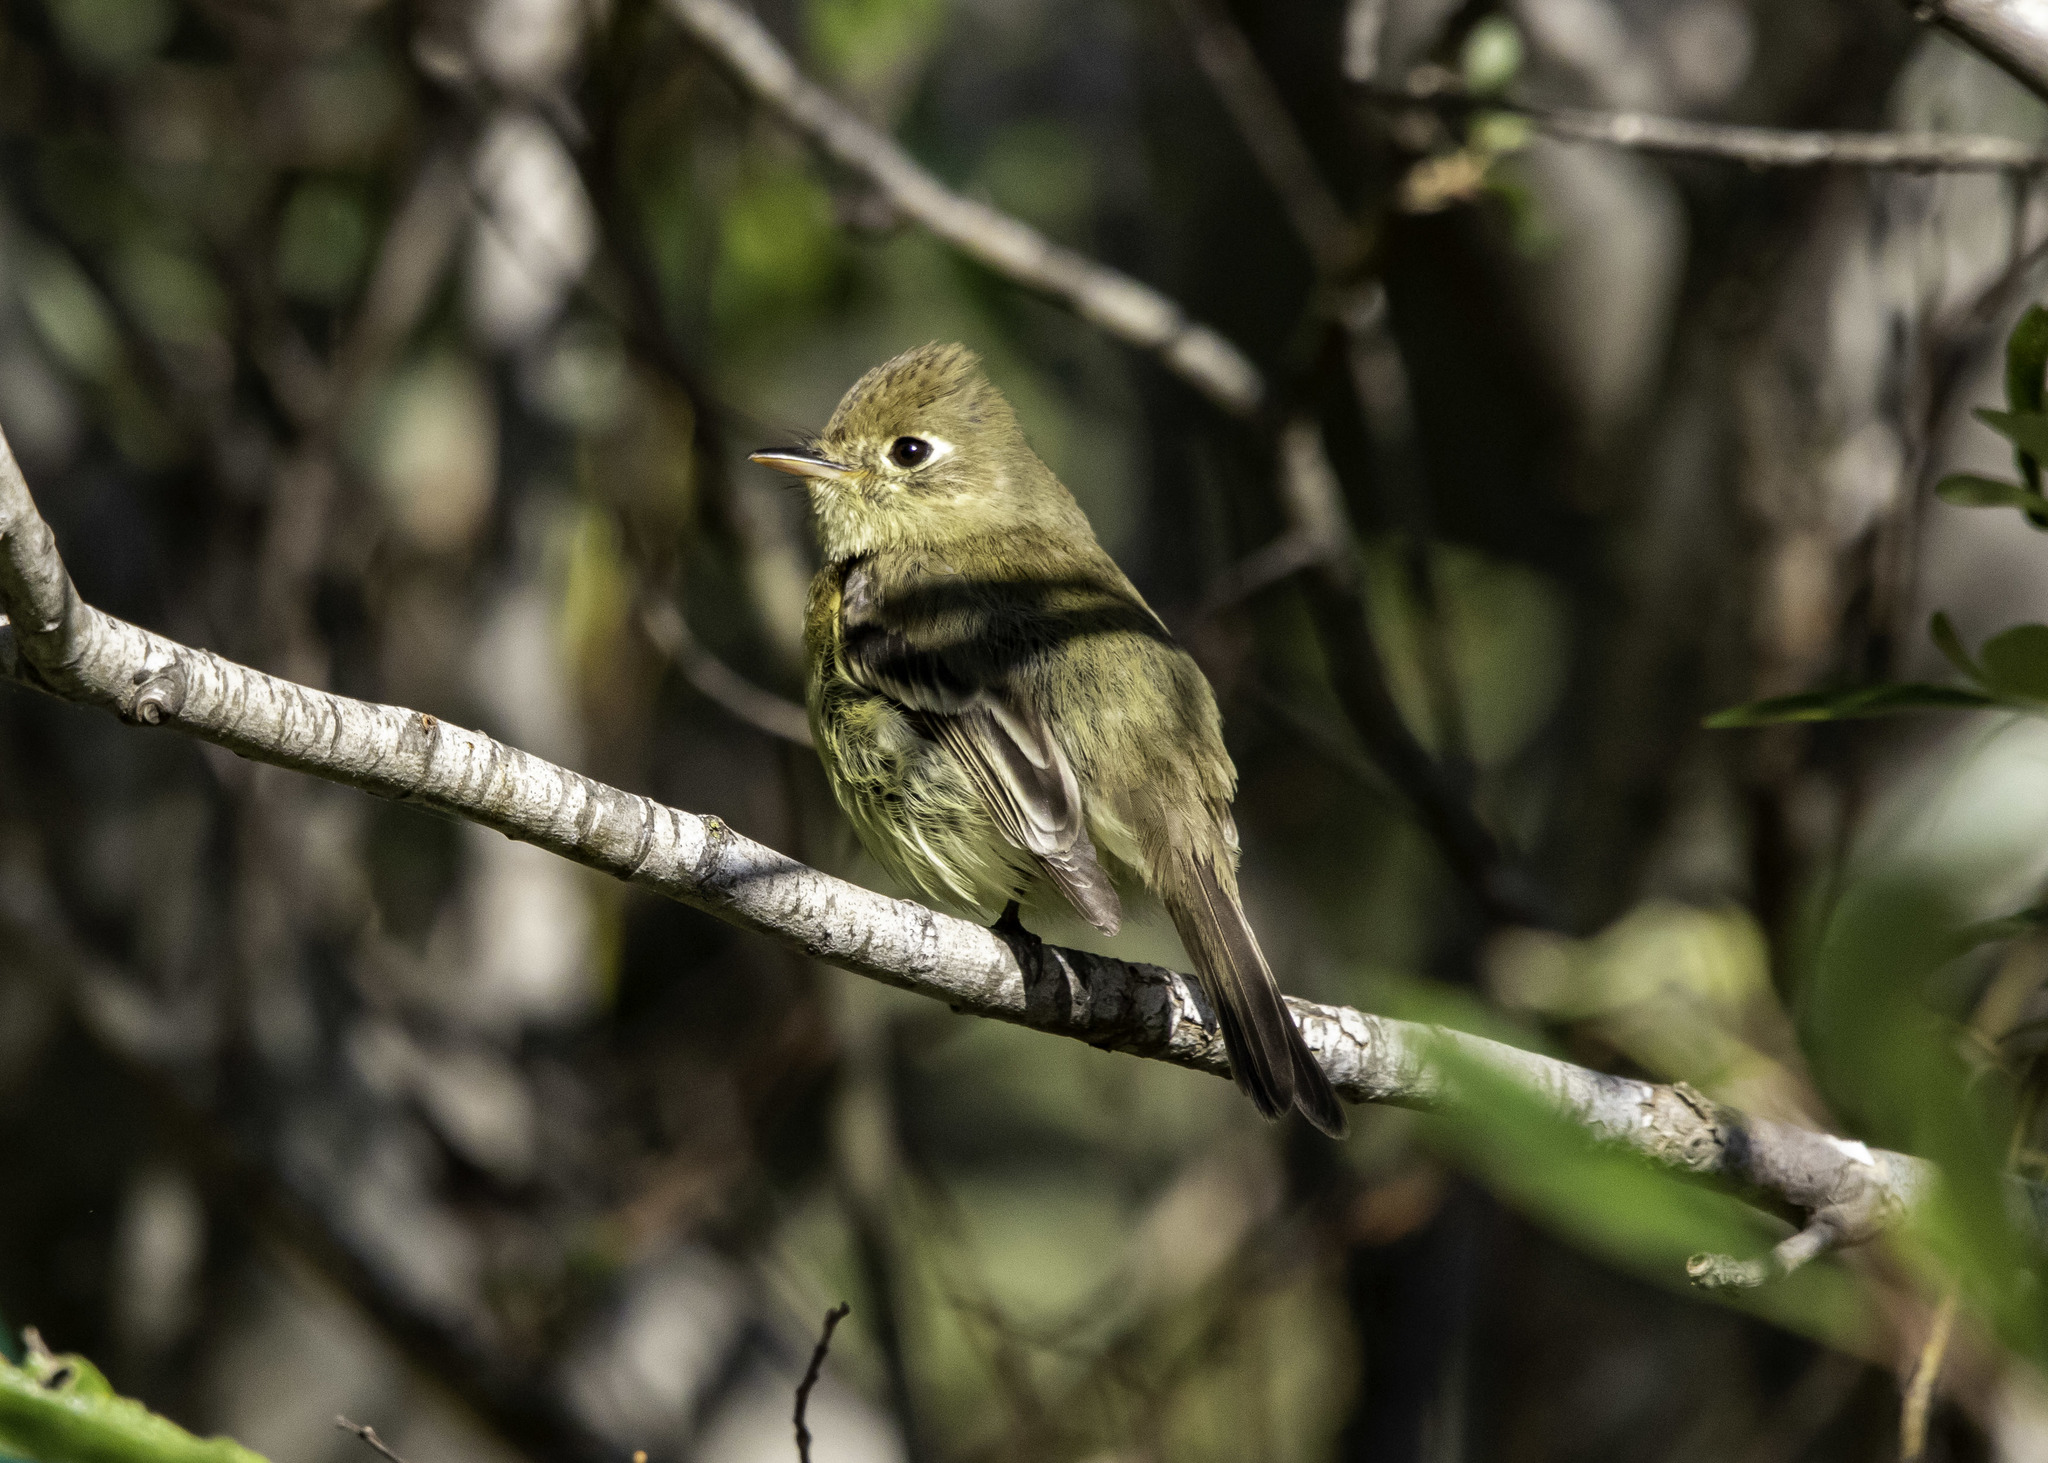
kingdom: Animalia
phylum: Chordata
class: Aves
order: Passeriformes
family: Tyrannidae
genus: Empidonax
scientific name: Empidonax difficilis
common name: Pacific-slope flycatcher
